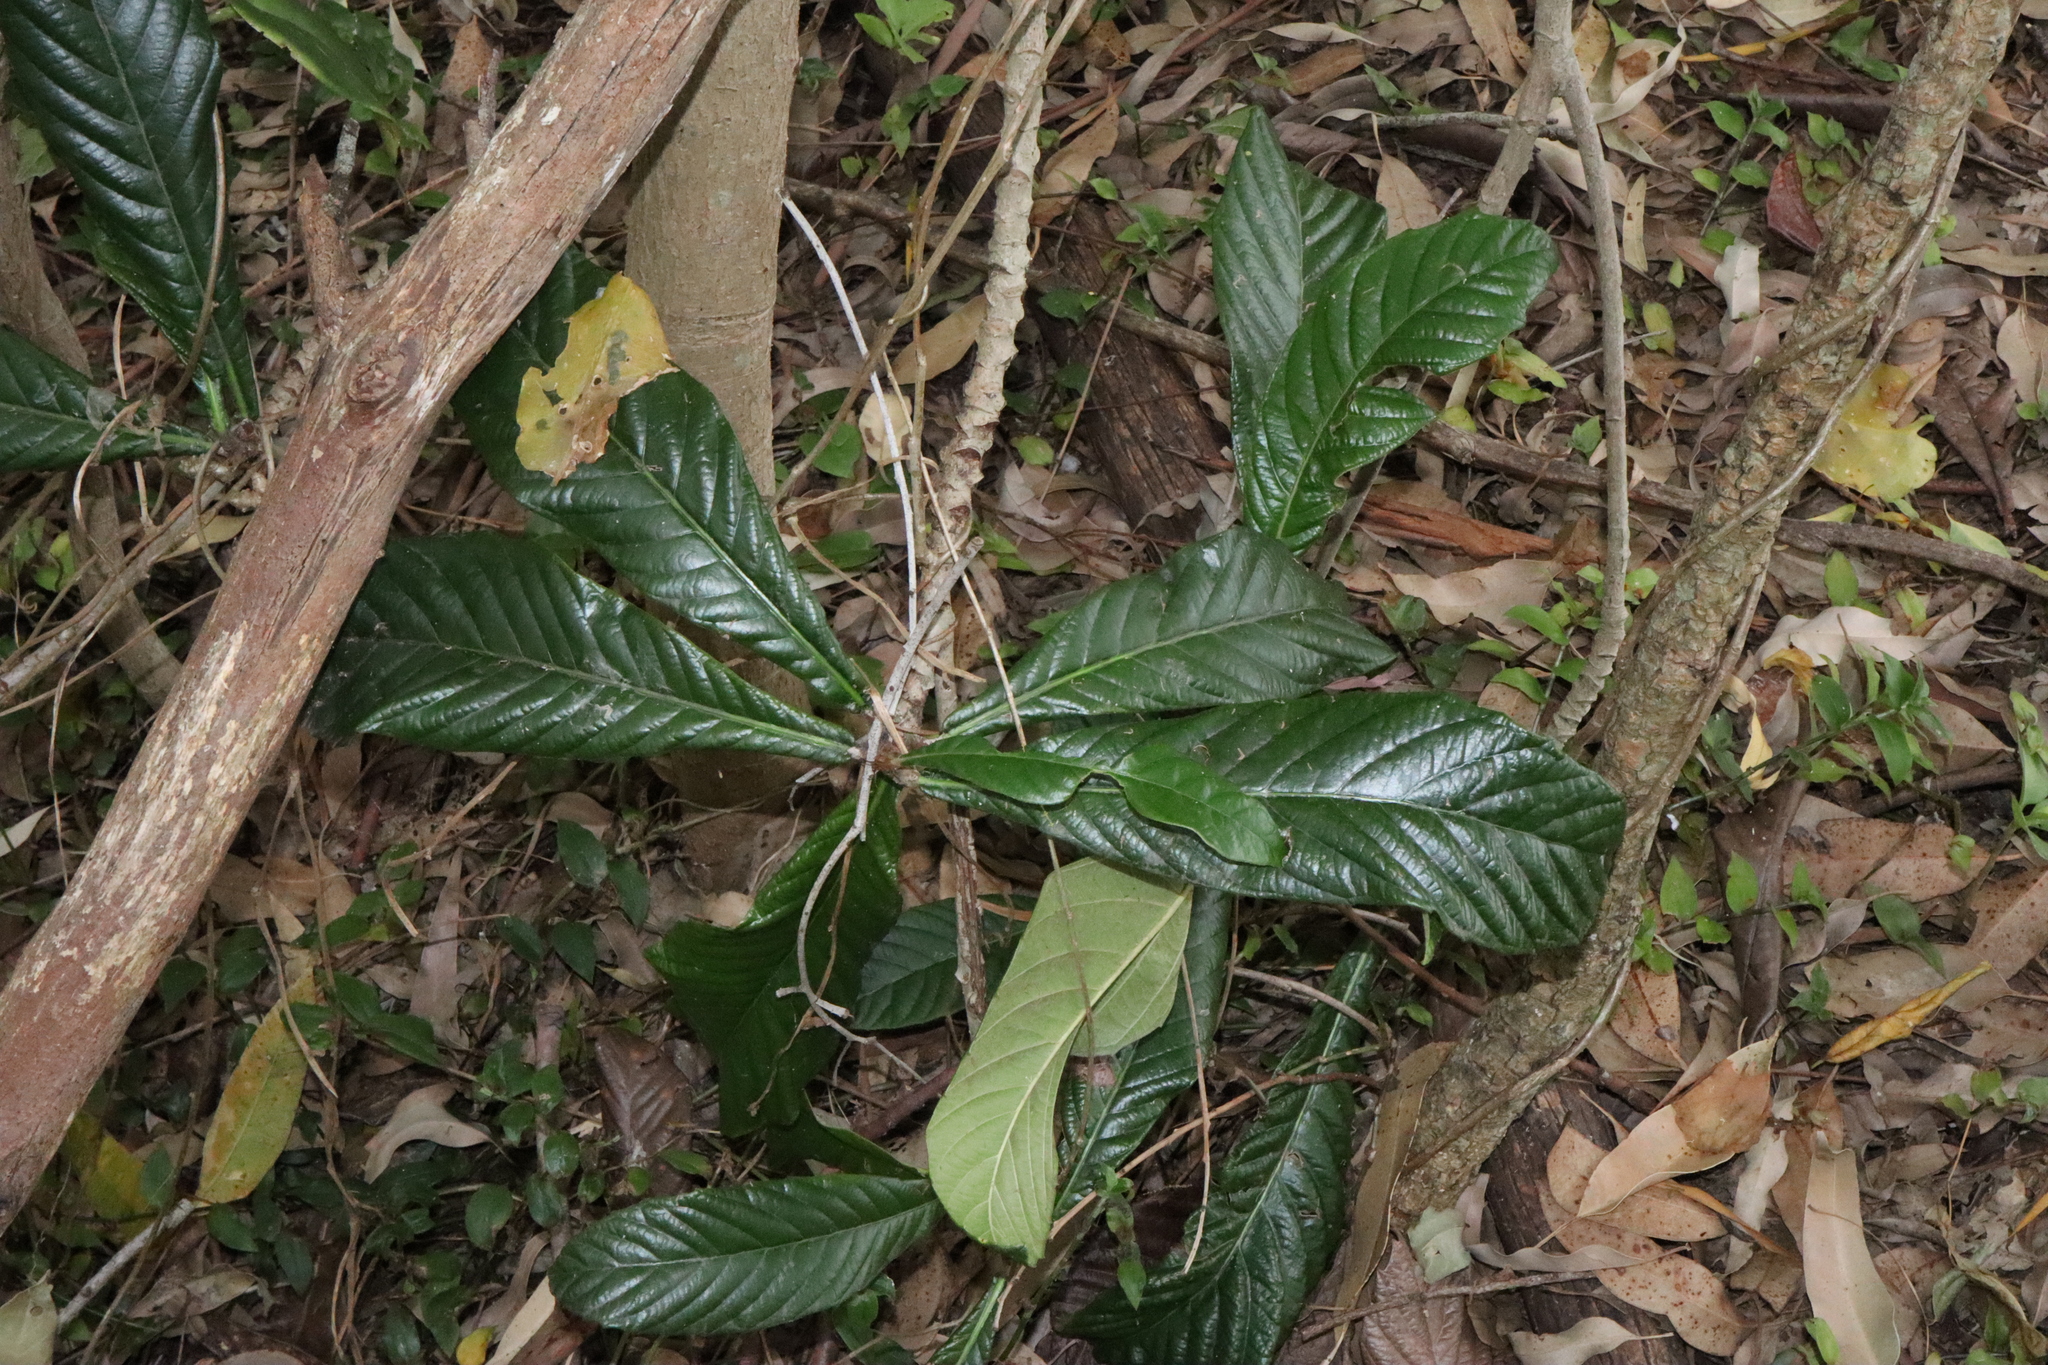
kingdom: Plantae
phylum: Tracheophyta
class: Magnoliopsida
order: Rosales
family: Rosaceae
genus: Rhaphiolepis
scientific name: Rhaphiolepis bibas
